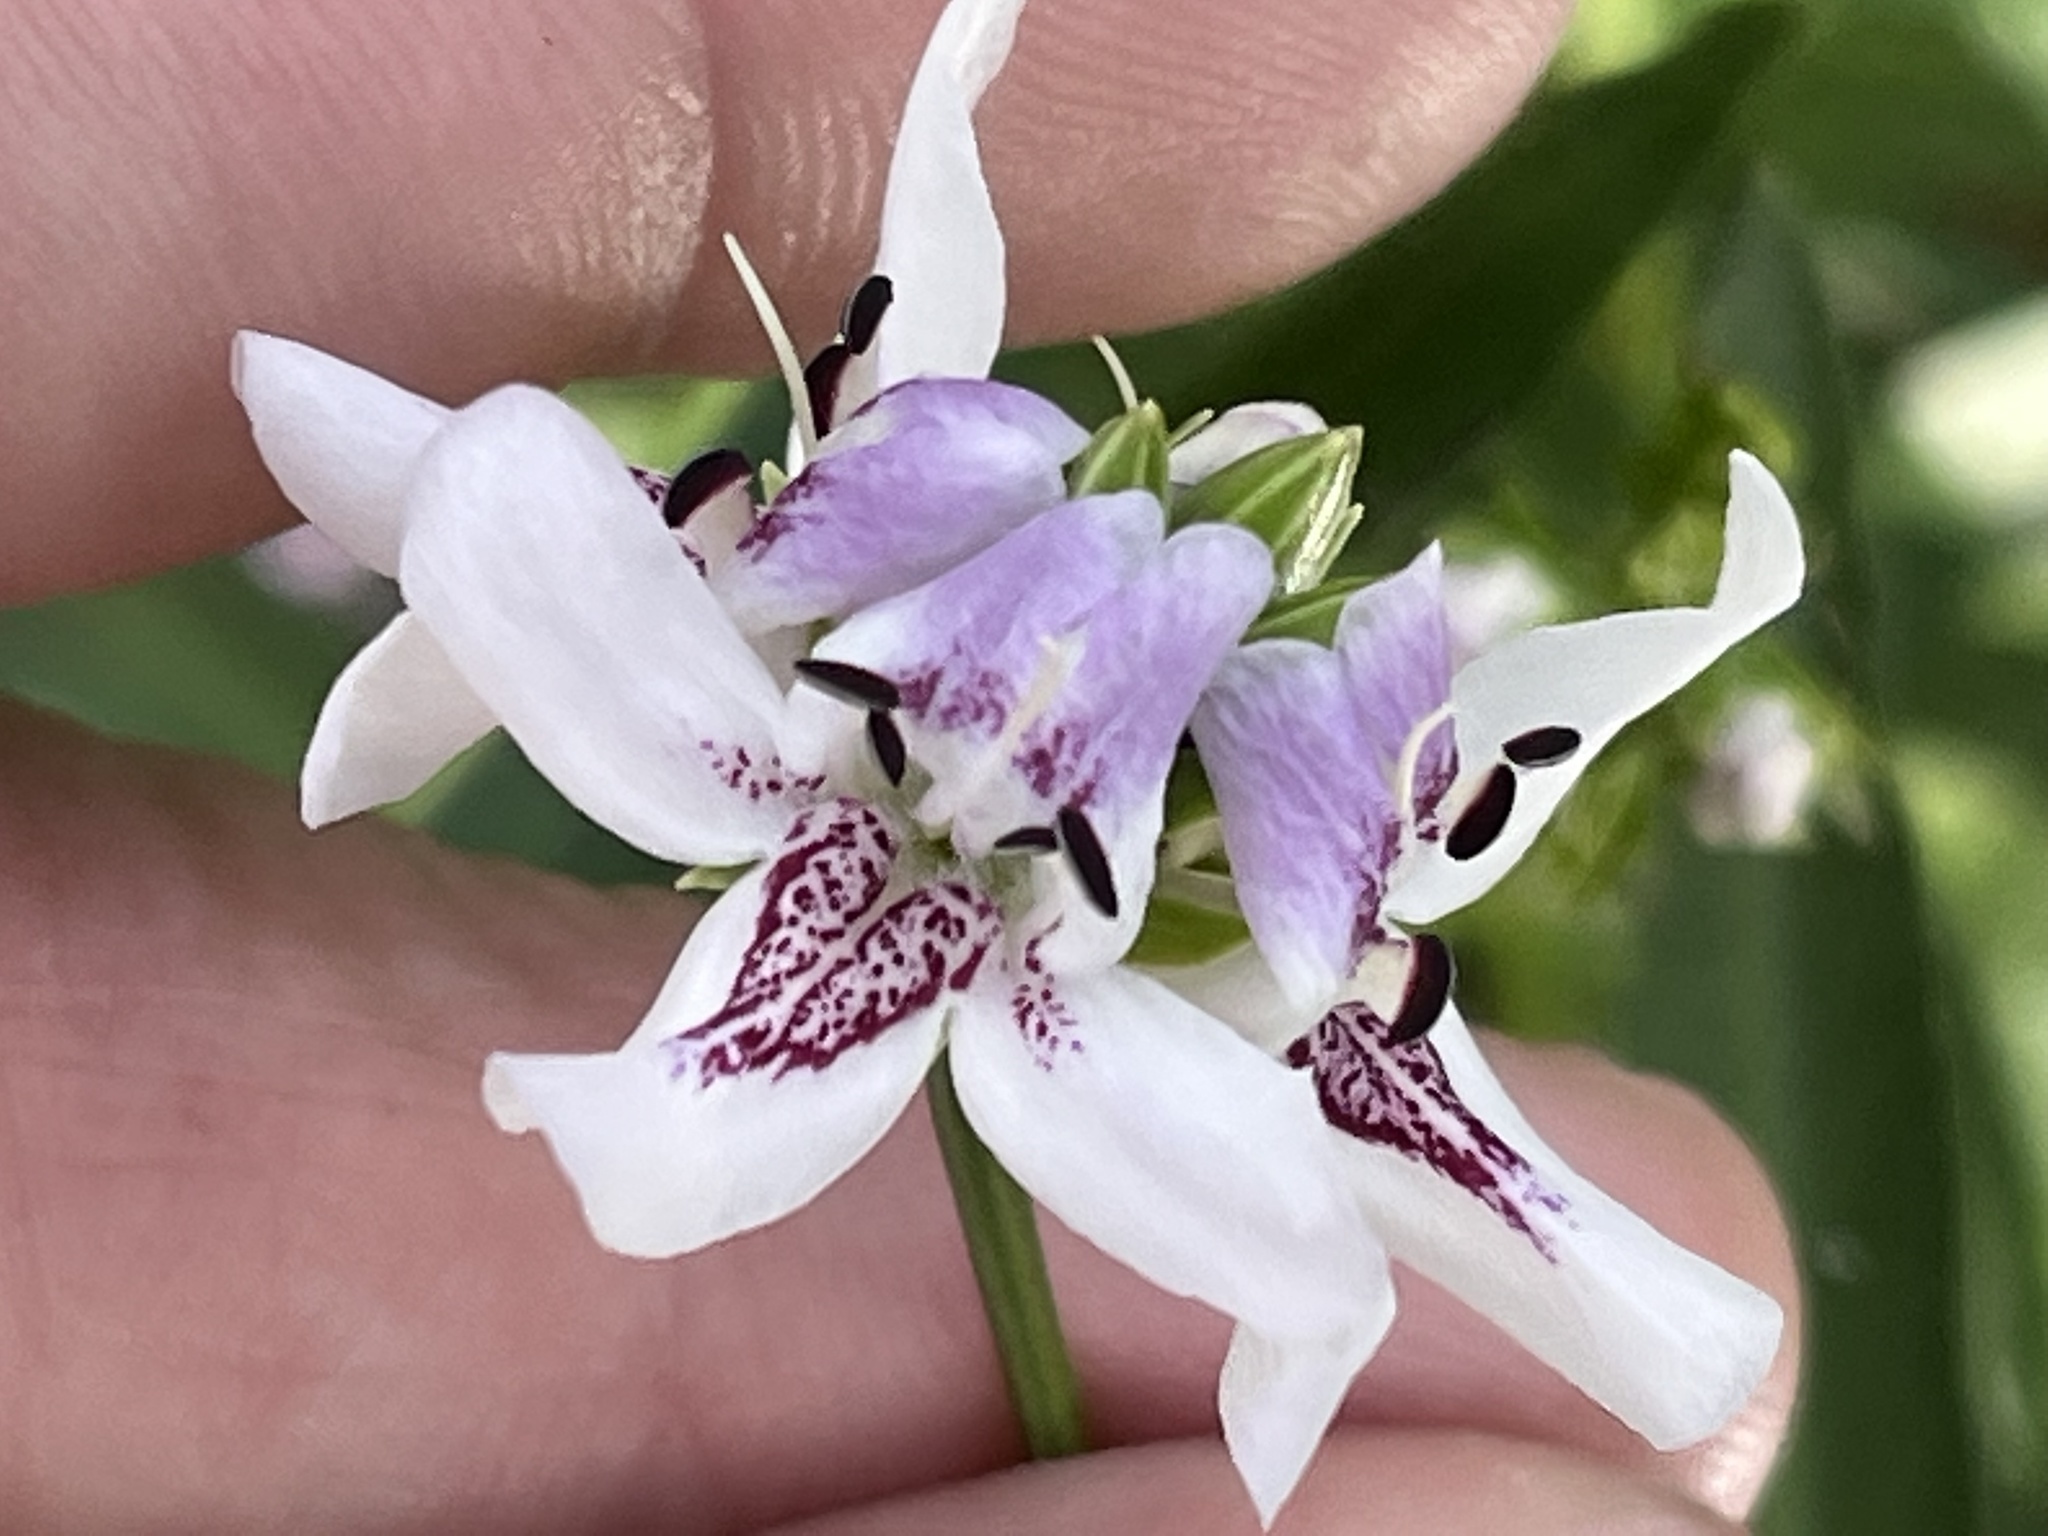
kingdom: Plantae
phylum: Tracheophyta
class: Magnoliopsida
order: Lamiales
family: Acanthaceae
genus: Dianthera
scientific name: Dianthera americana
